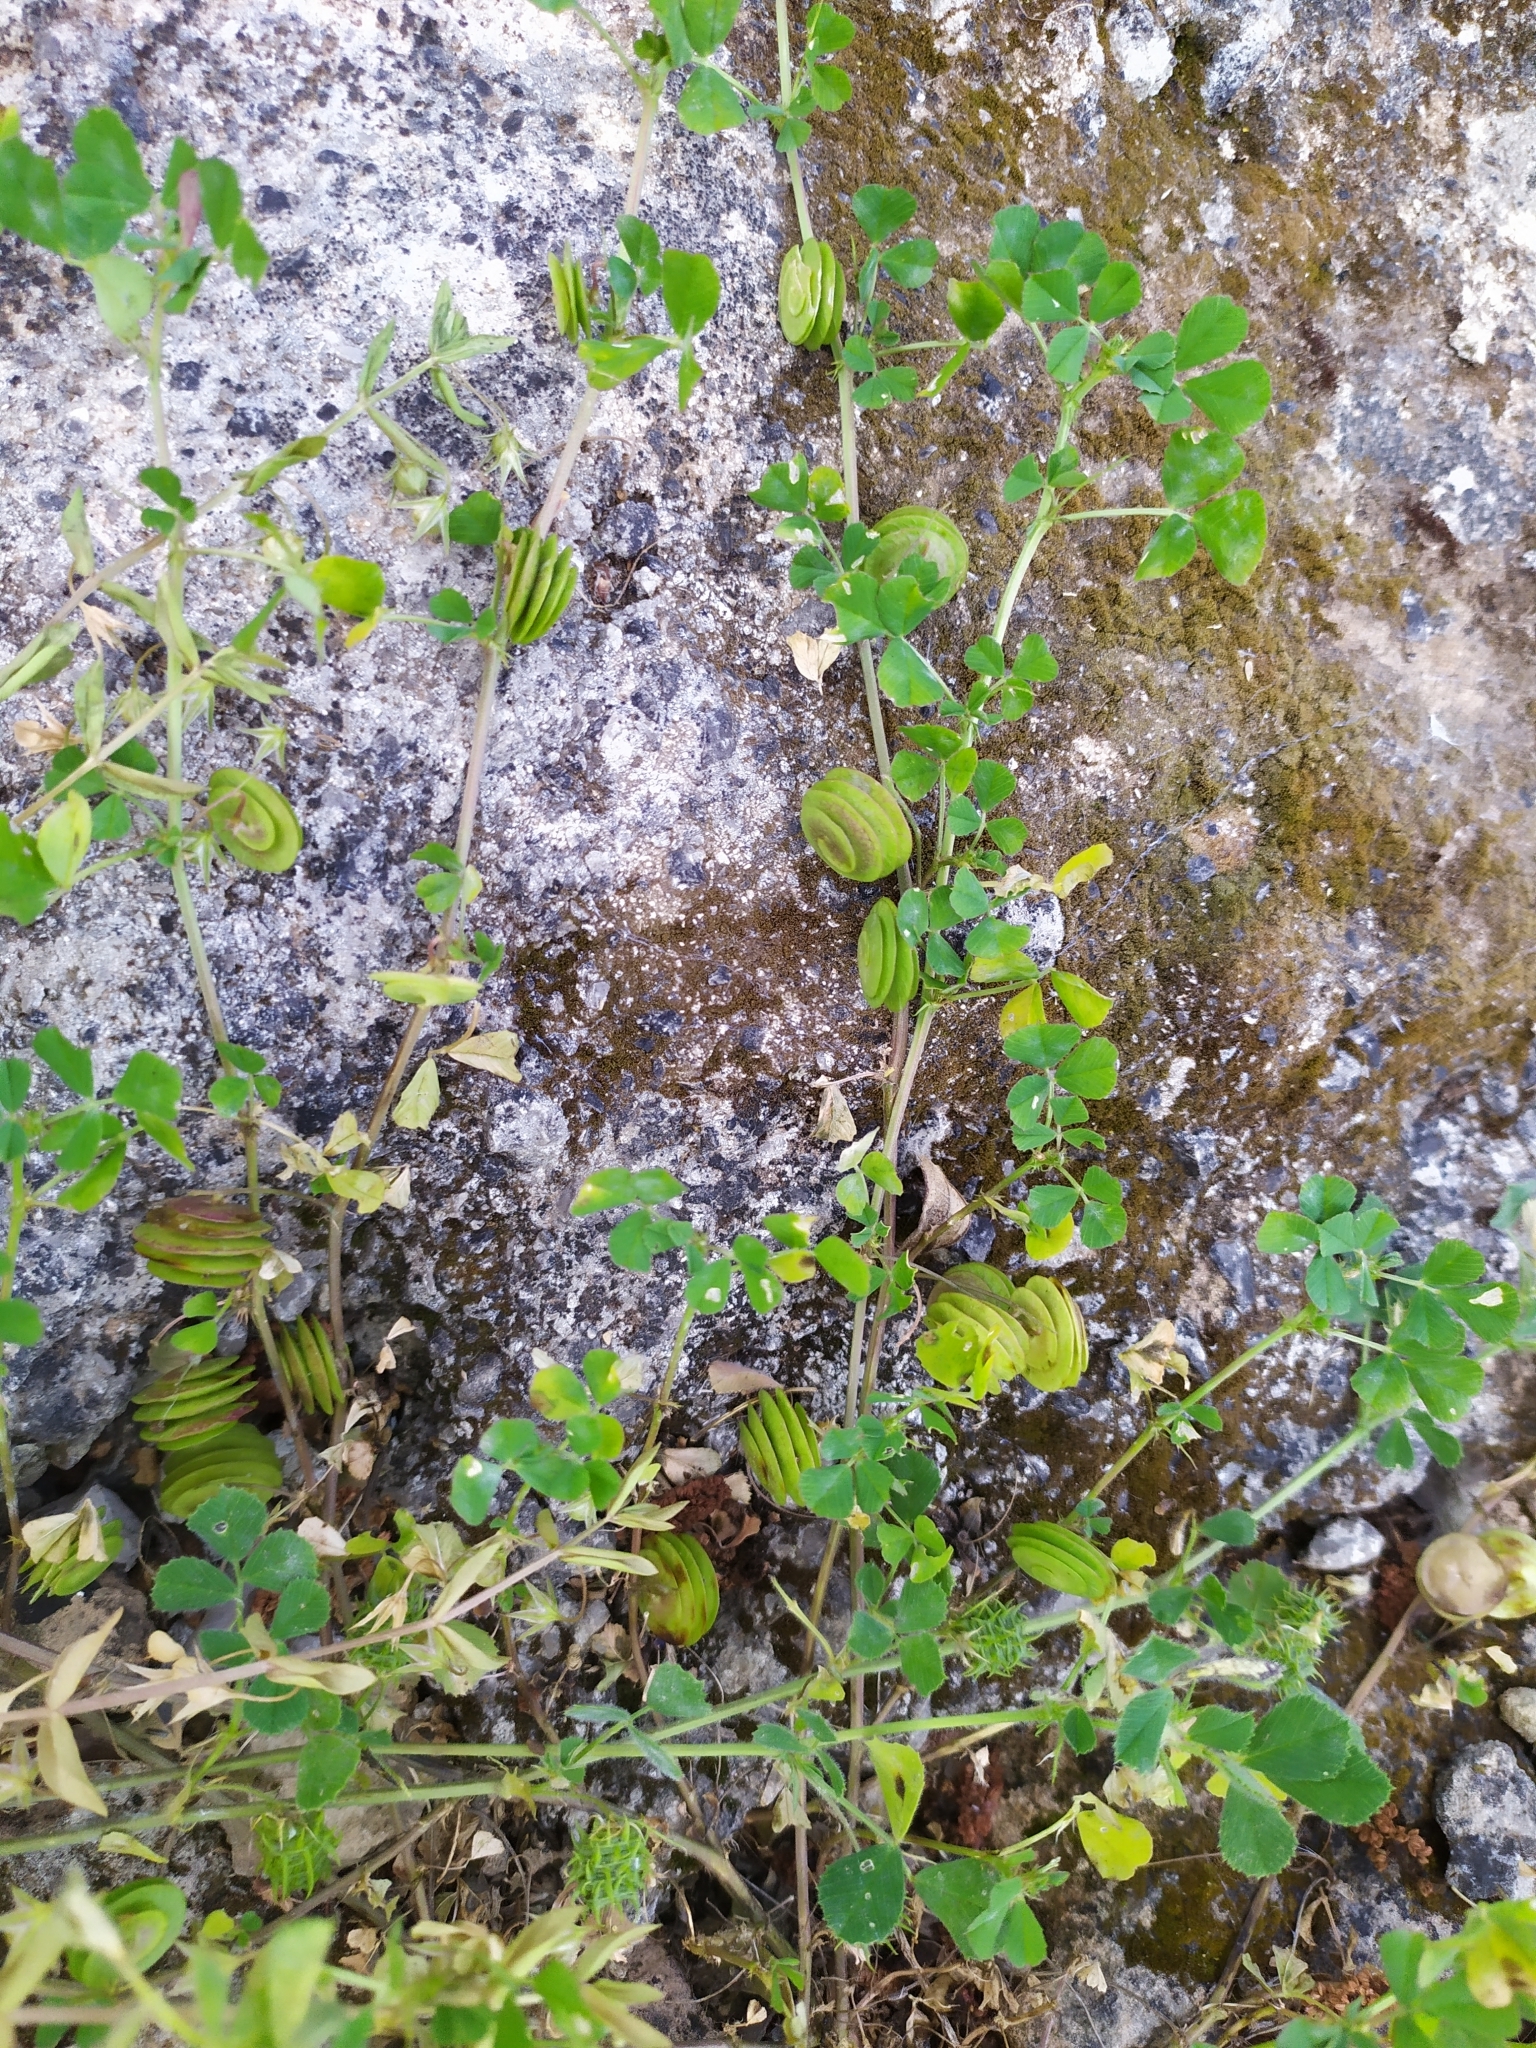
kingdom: Plantae
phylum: Tracheophyta
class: Magnoliopsida
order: Fabales
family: Fabaceae
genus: Medicago
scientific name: Medicago orbicularis
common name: Button medick
